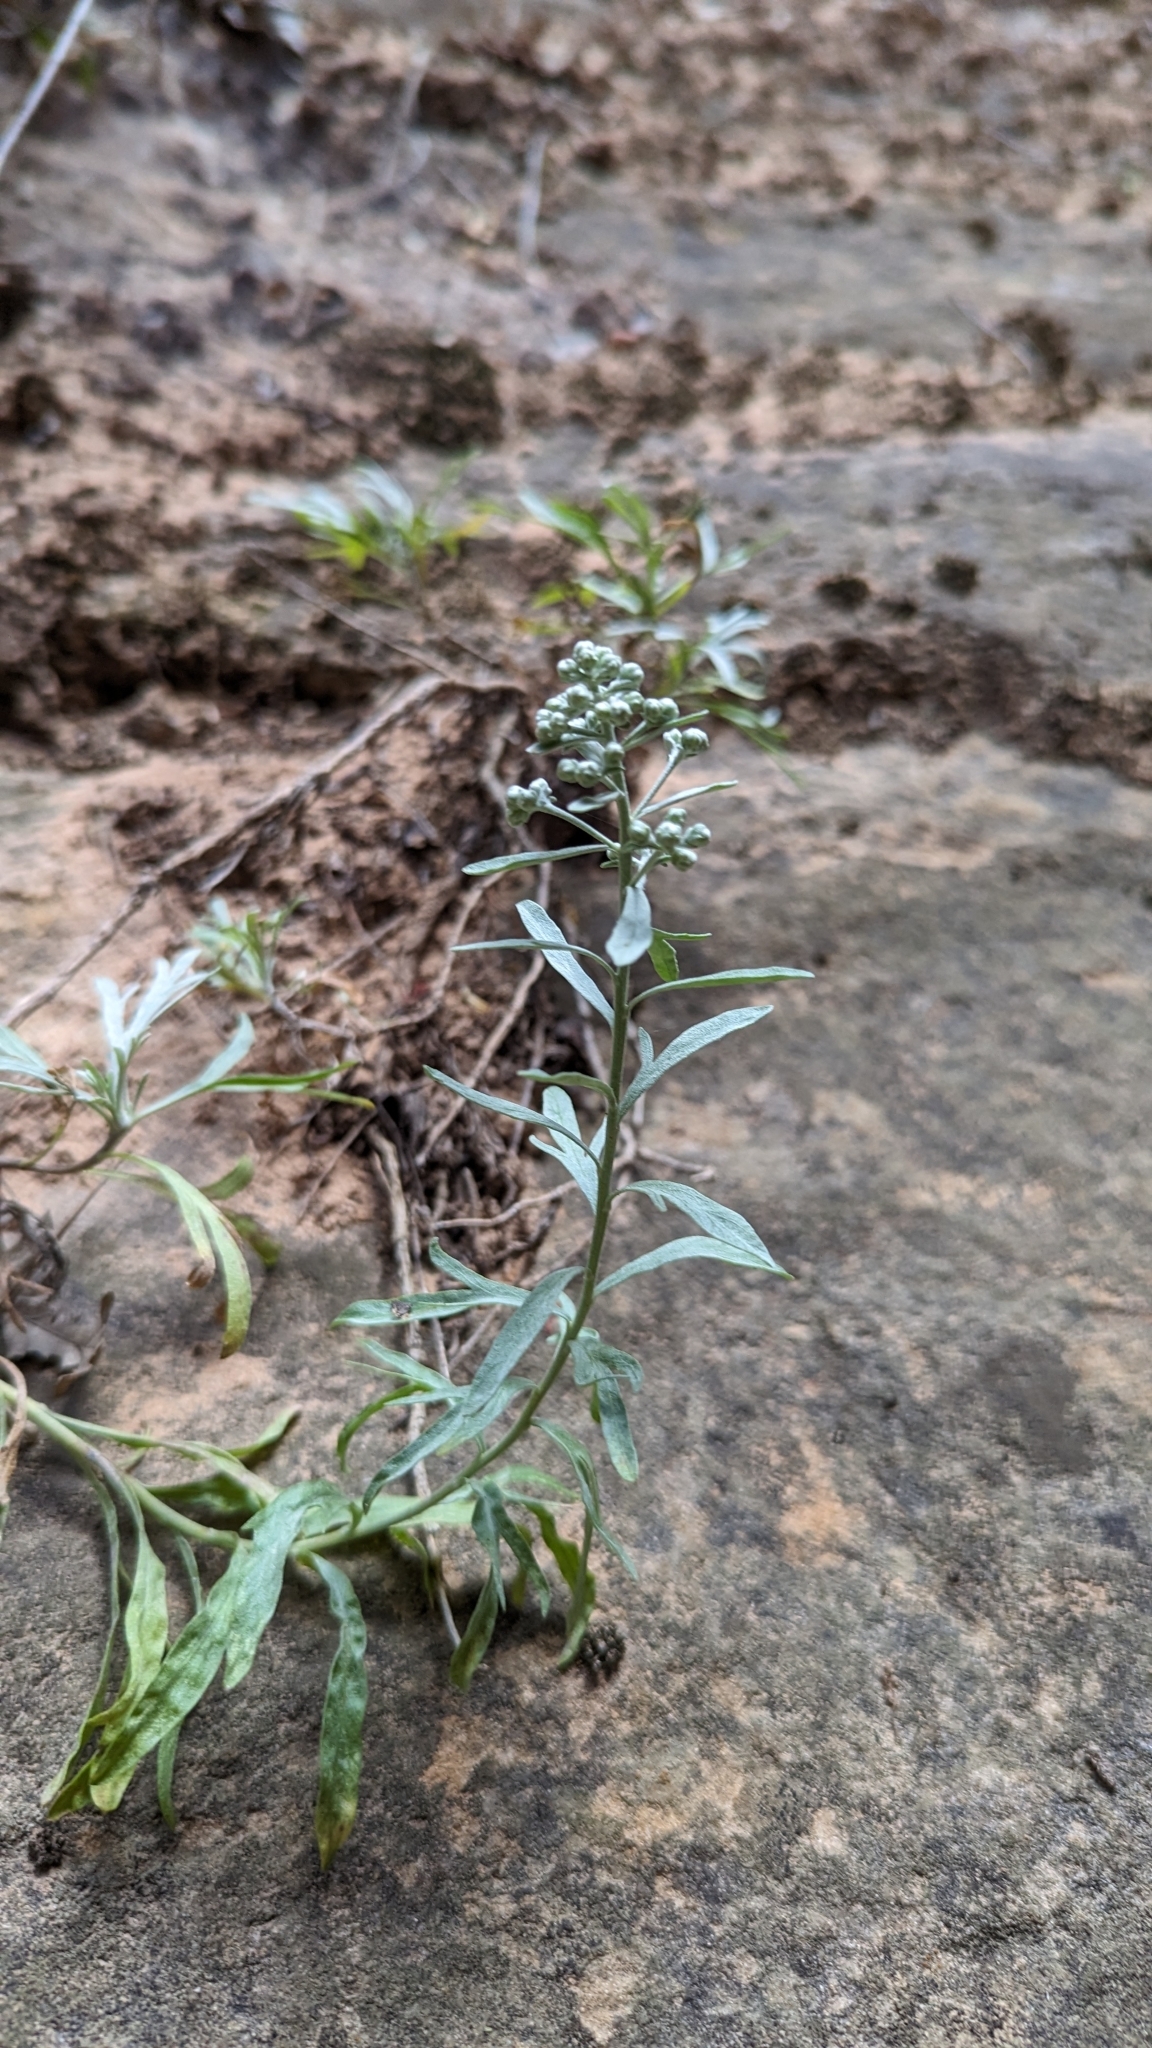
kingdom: Plantae
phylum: Tracheophyta
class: Magnoliopsida
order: Asterales
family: Asteraceae
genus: Artemisia
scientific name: Artemisia ludoviciana
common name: Western mugwort
